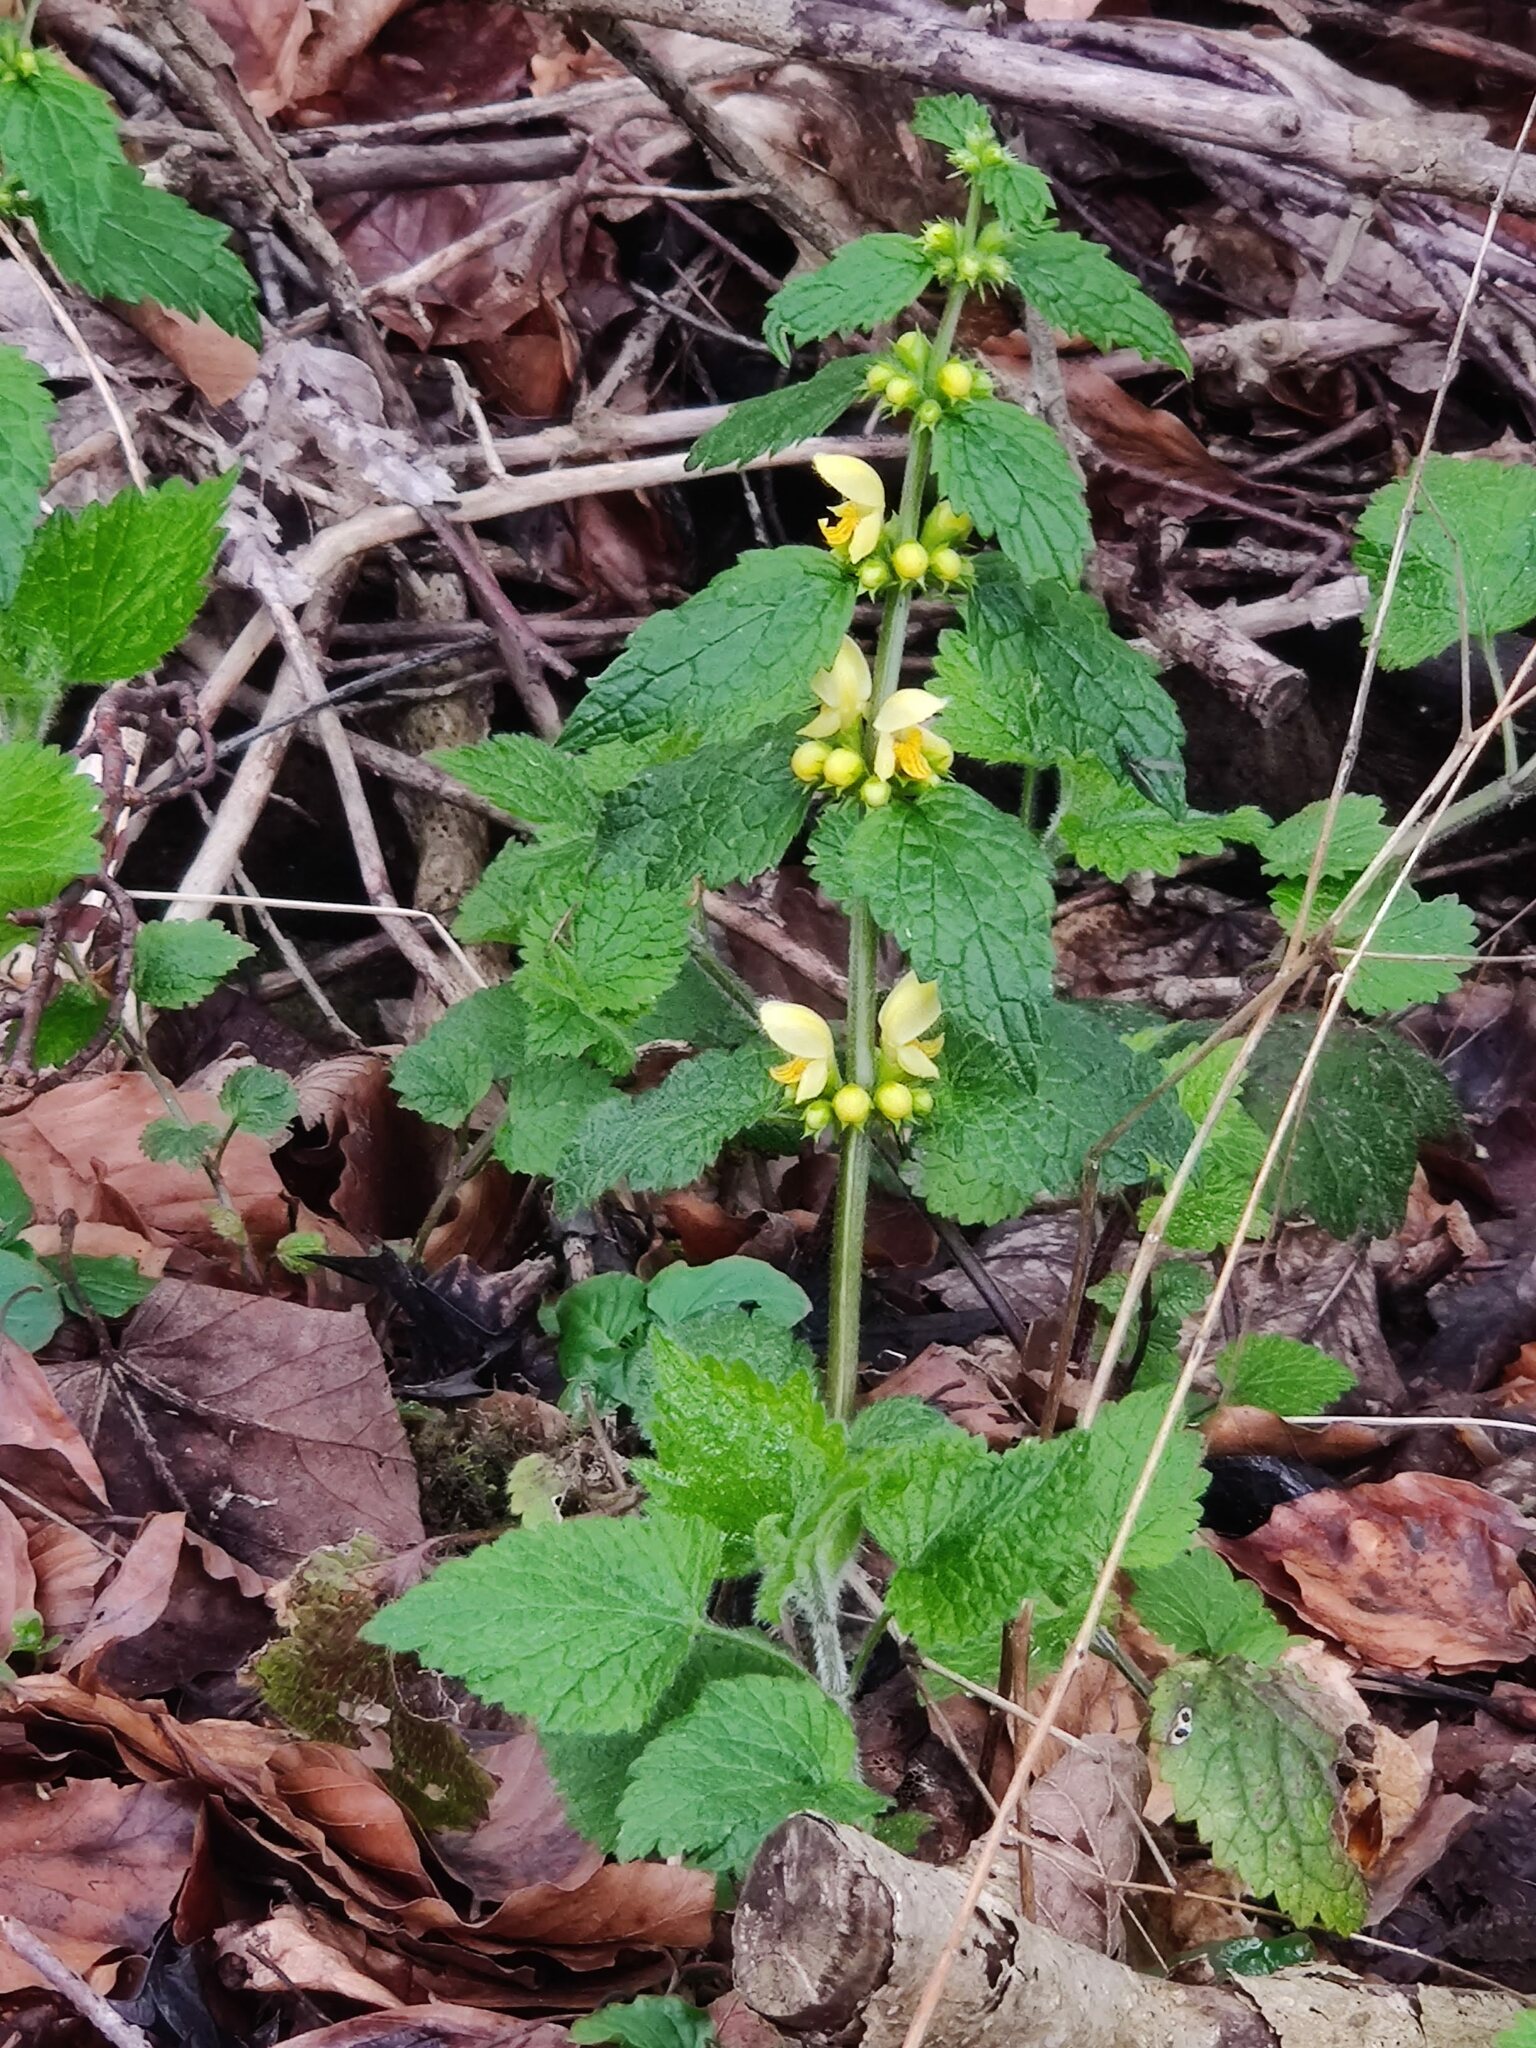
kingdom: Plantae
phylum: Tracheophyta
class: Magnoliopsida
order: Lamiales
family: Lamiaceae
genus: Lamium
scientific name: Lamium galeobdolon
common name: Yellow archangel
